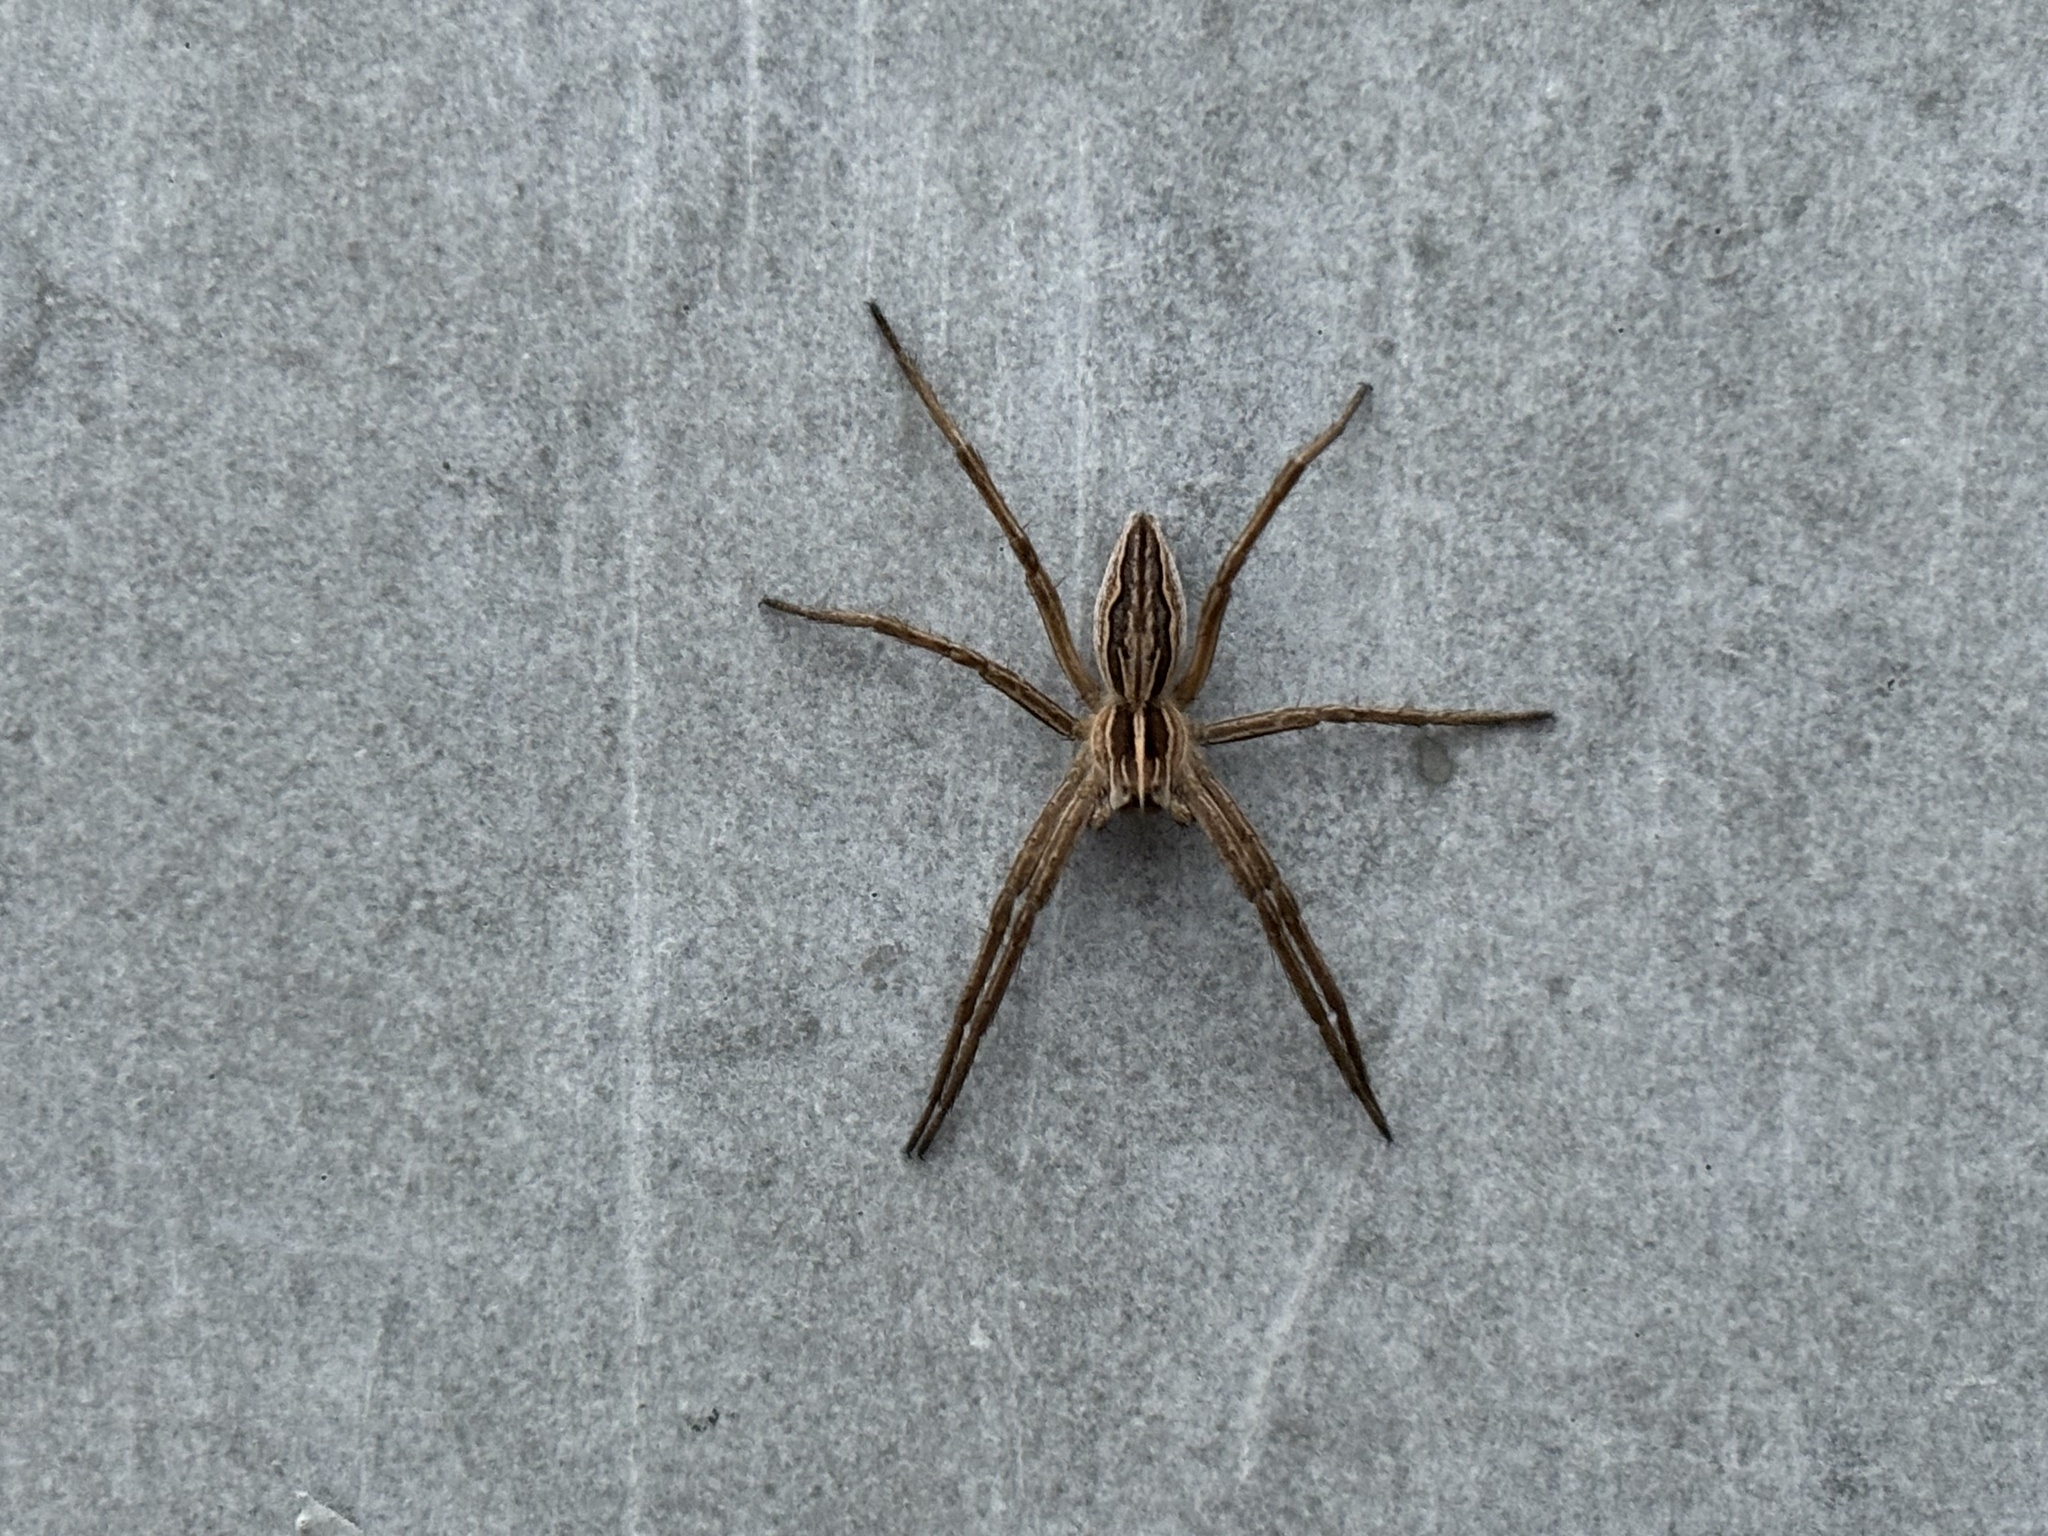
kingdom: Animalia
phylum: Arthropoda
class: Arachnida
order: Araneae
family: Pisauridae
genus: Pisaura
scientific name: Pisaura mirabilis
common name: Tent spider
